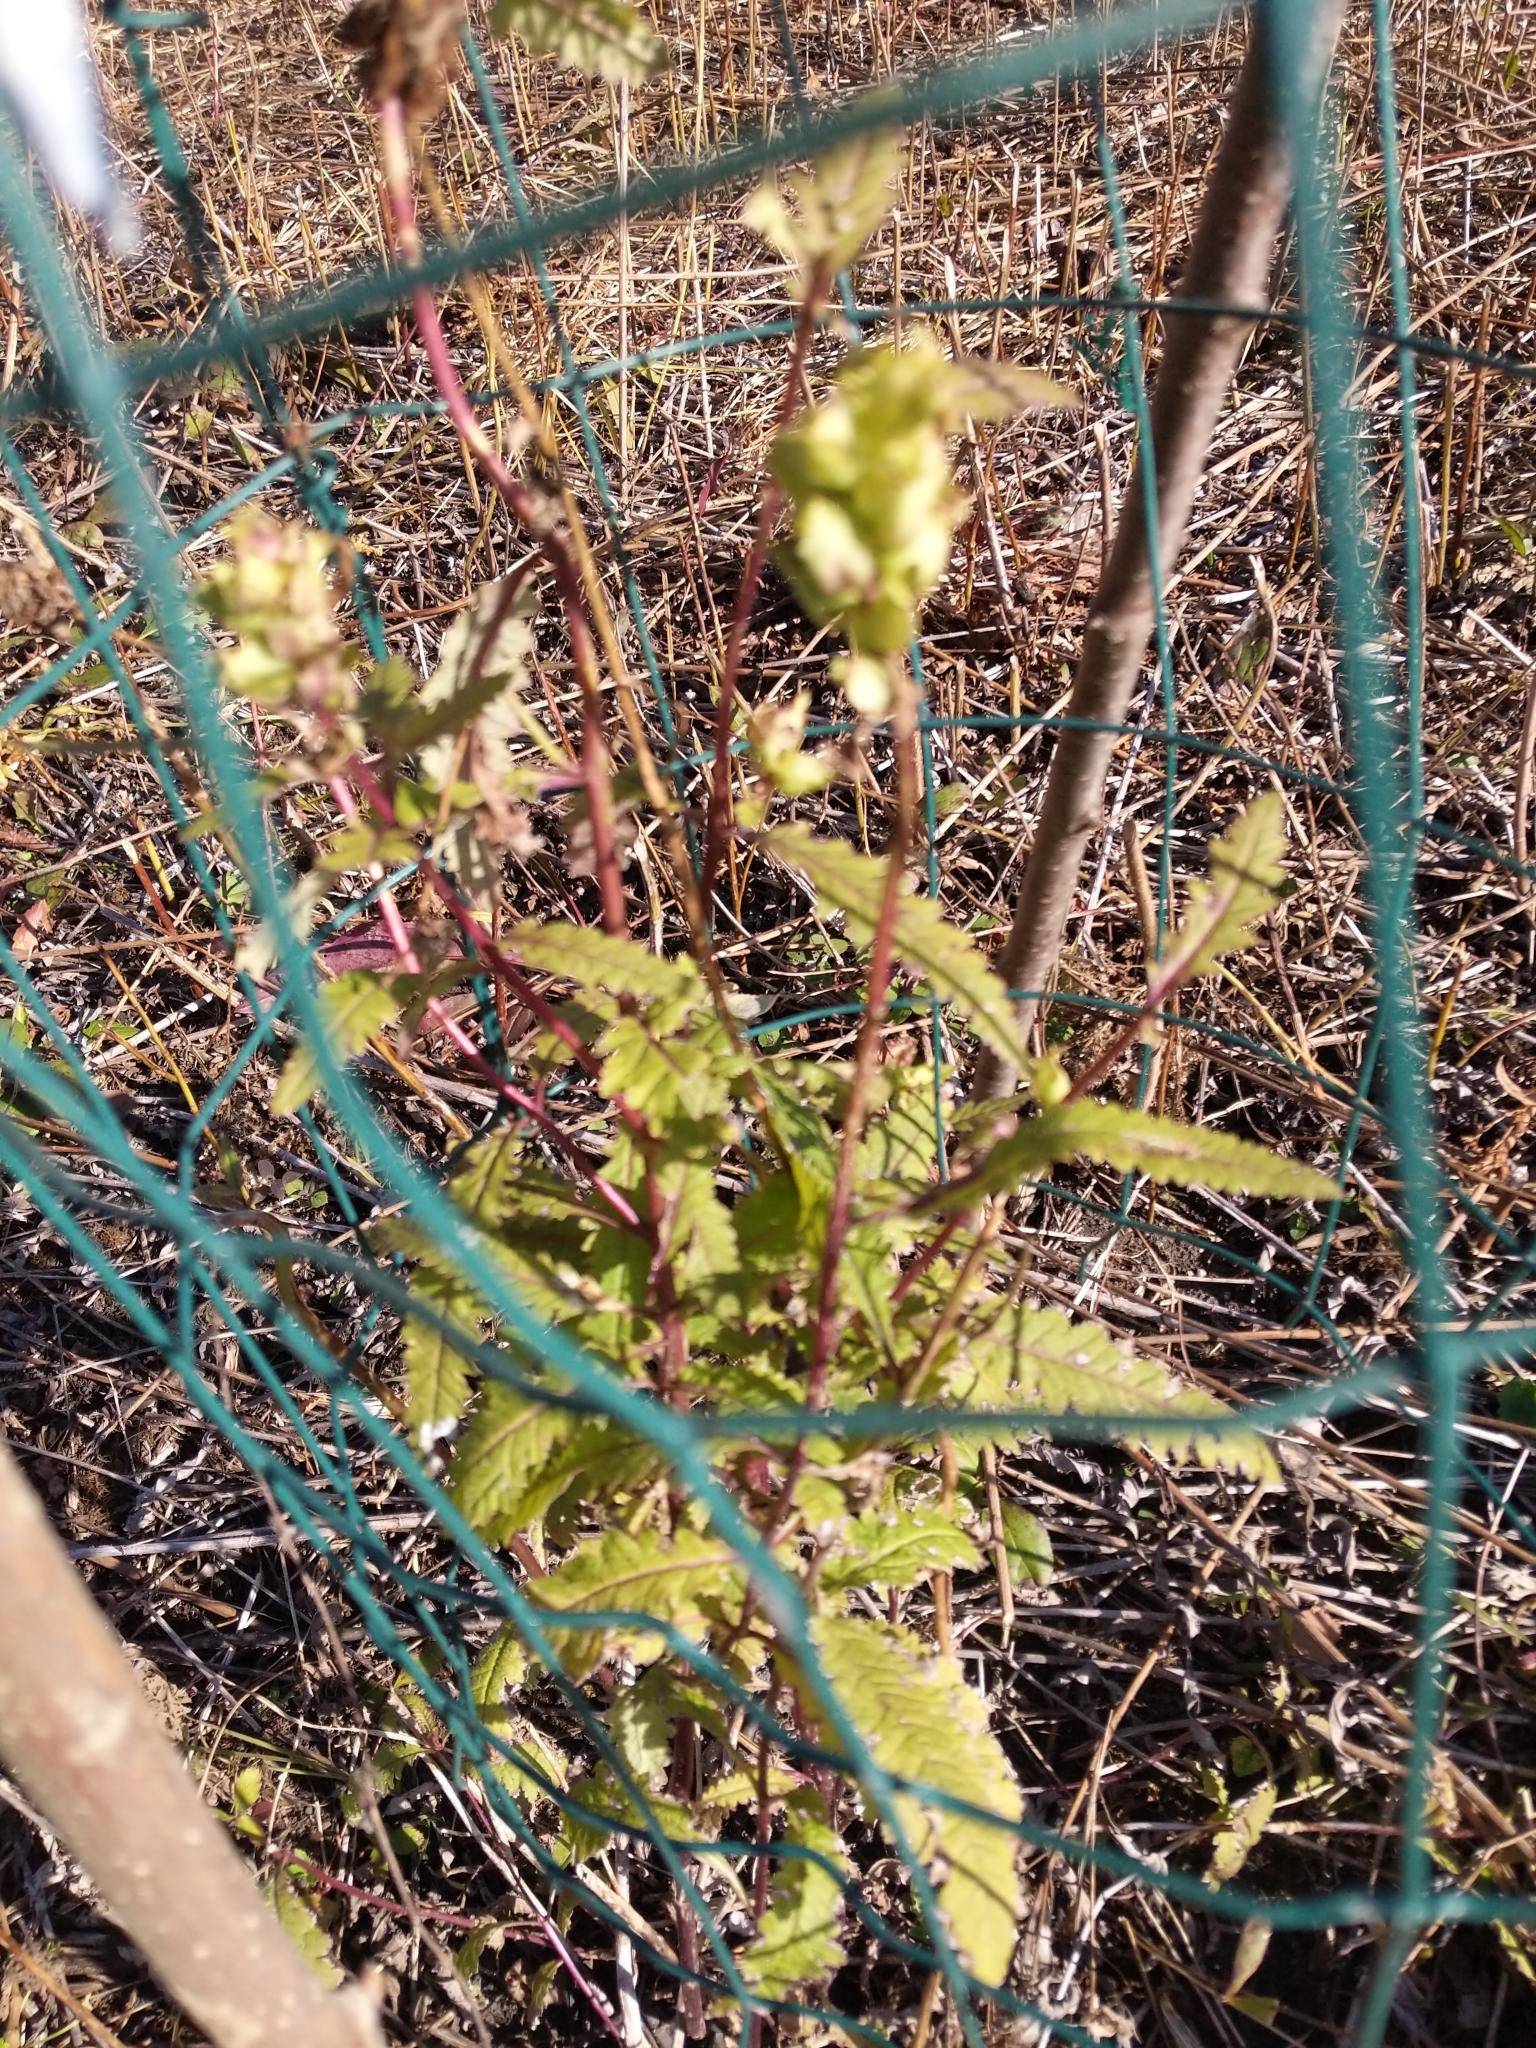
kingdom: Plantae
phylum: Tracheophyta
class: Magnoliopsida
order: Lamiales
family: Orobanchaceae
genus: Pedicularis
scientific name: Pedicularis lanceolata
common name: Swamp lousewort
